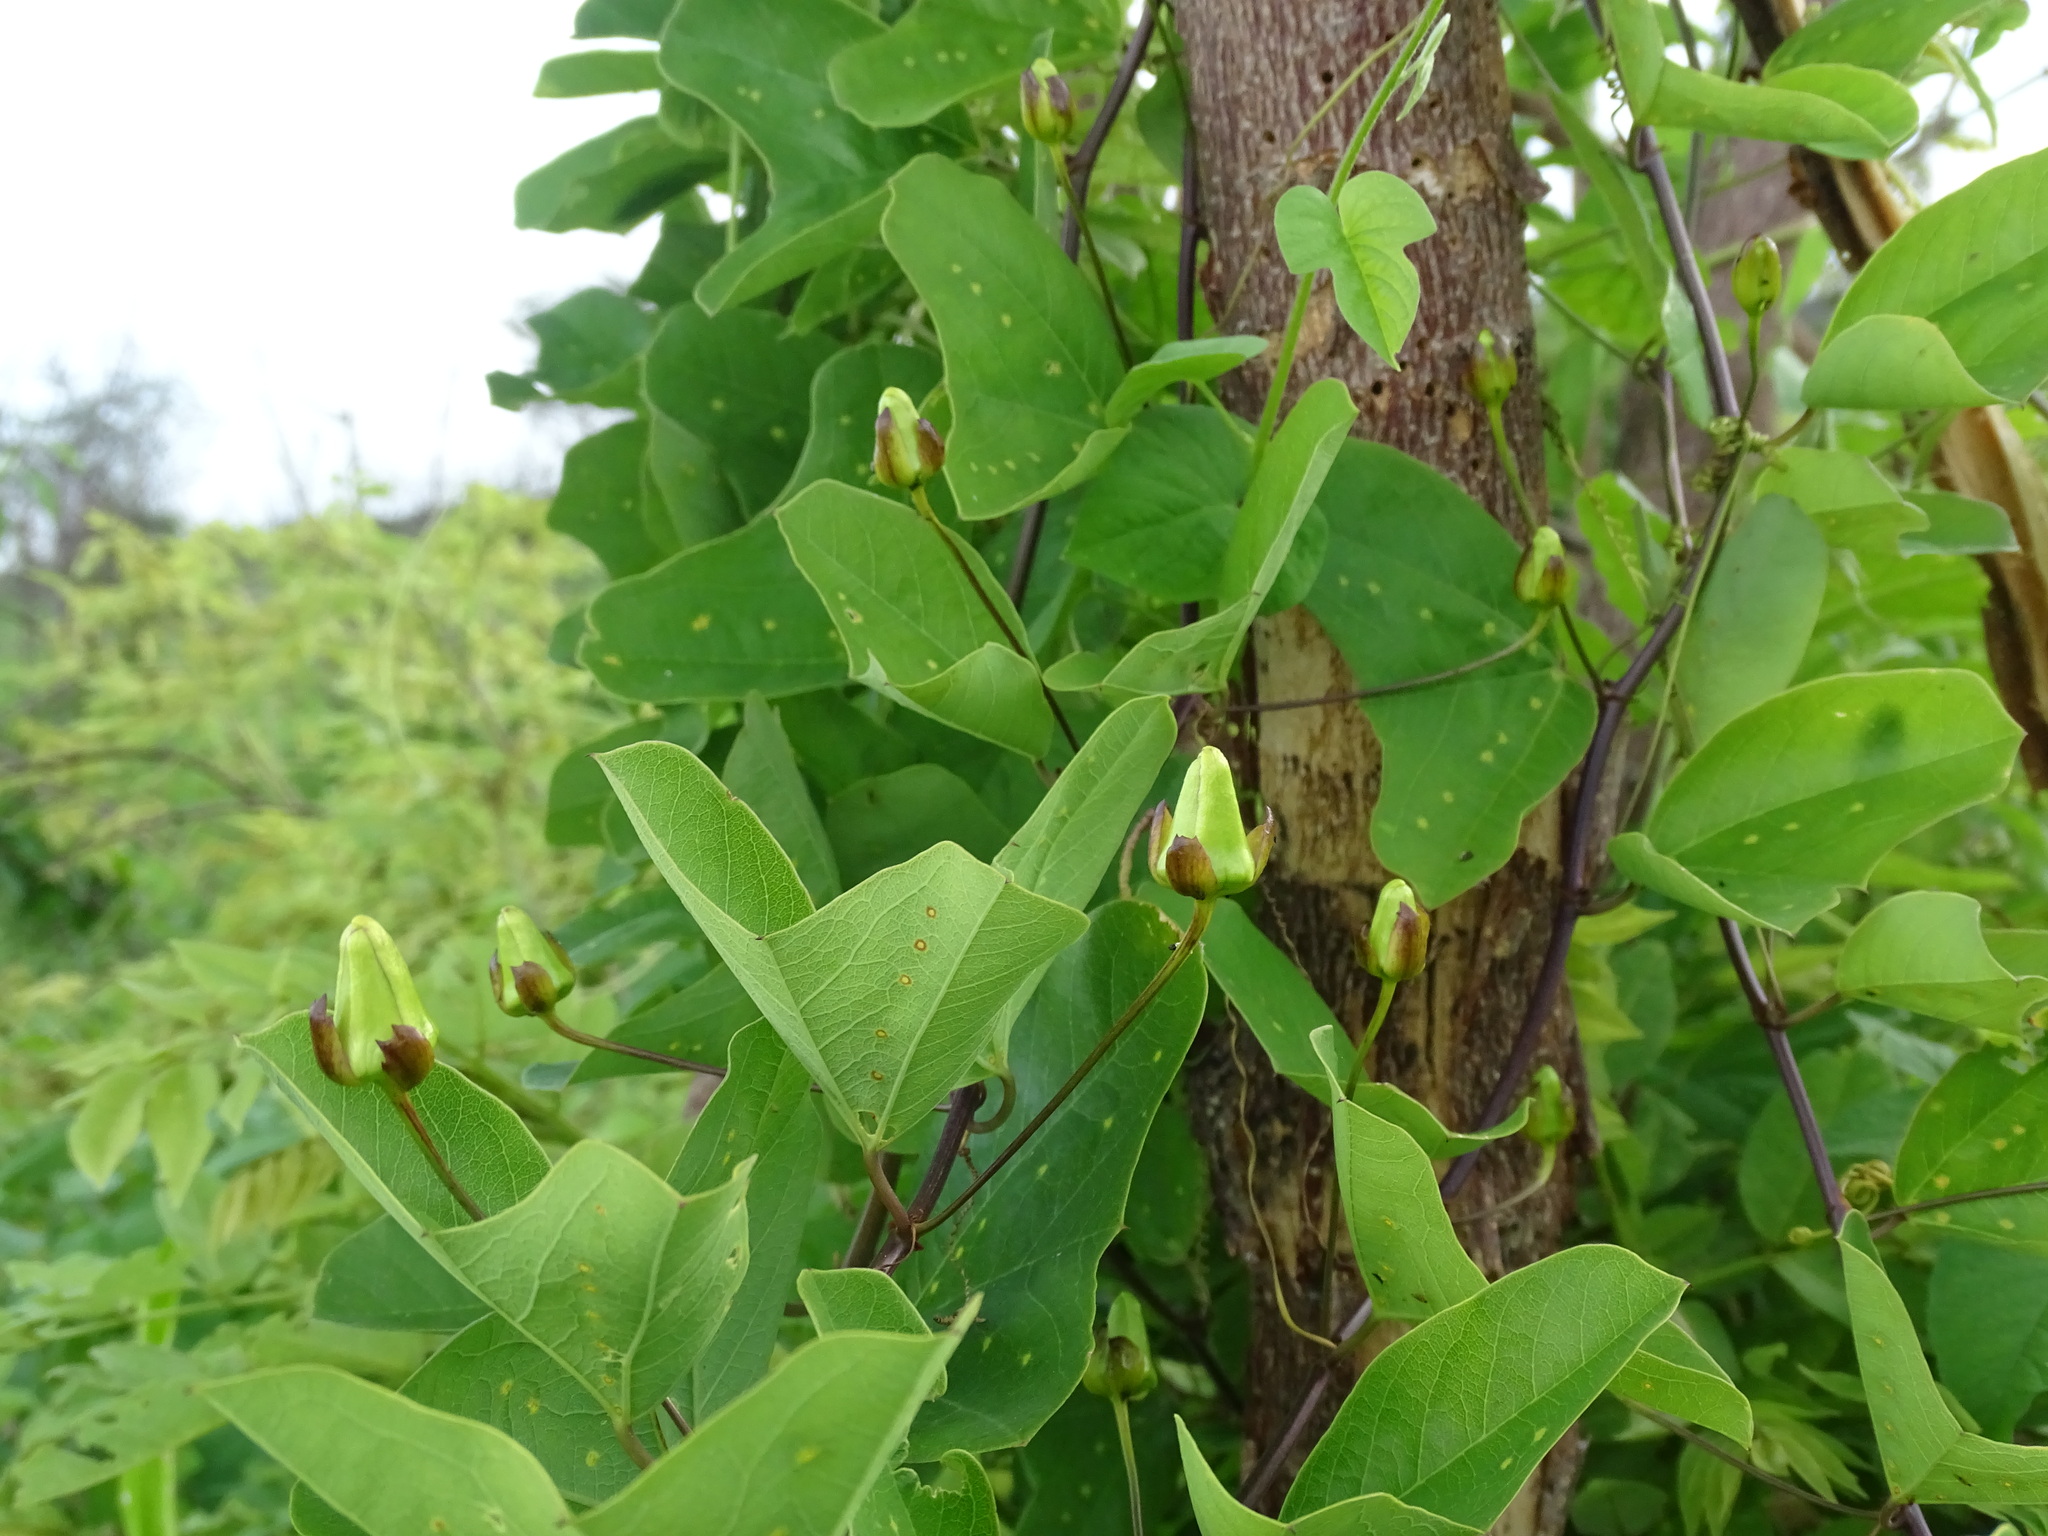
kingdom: Plantae
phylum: Tracheophyta
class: Magnoliopsida
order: Malpighiales
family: Passifloraceae
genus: Passiflora
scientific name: Passiflora bicornis
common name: Wingleaf passionflower
